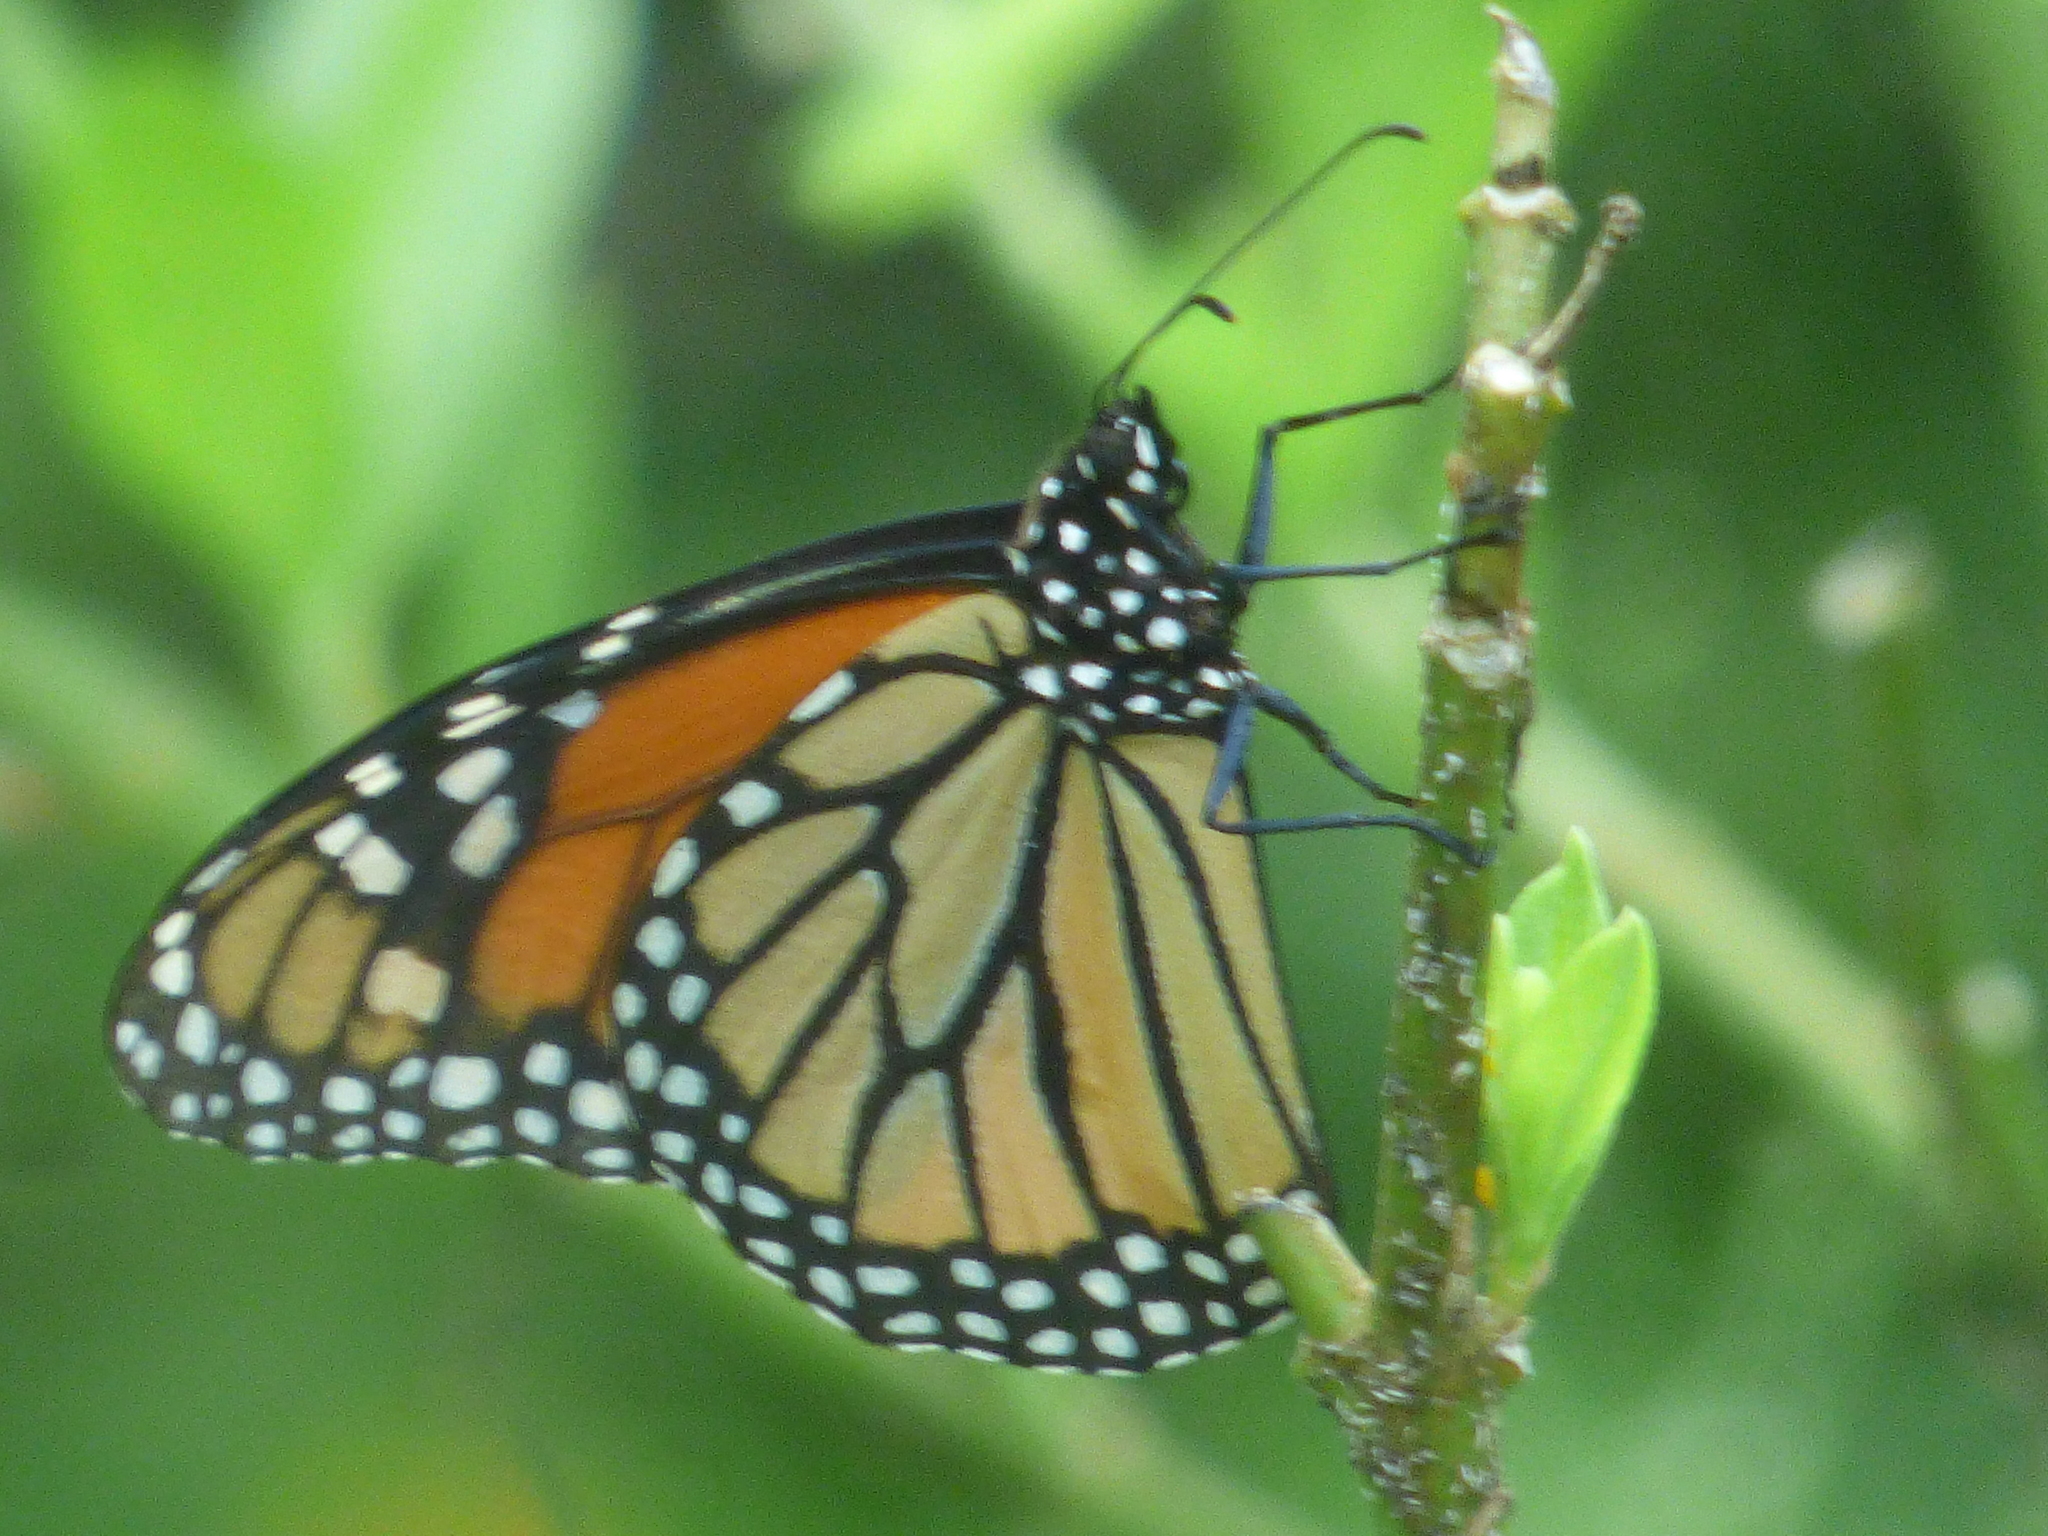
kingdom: Animalia
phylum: Arthropoda
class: Insecta
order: Lepidoptera
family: Nymphalidae
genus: Danaus
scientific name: Danaus plexippus
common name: Monarch
